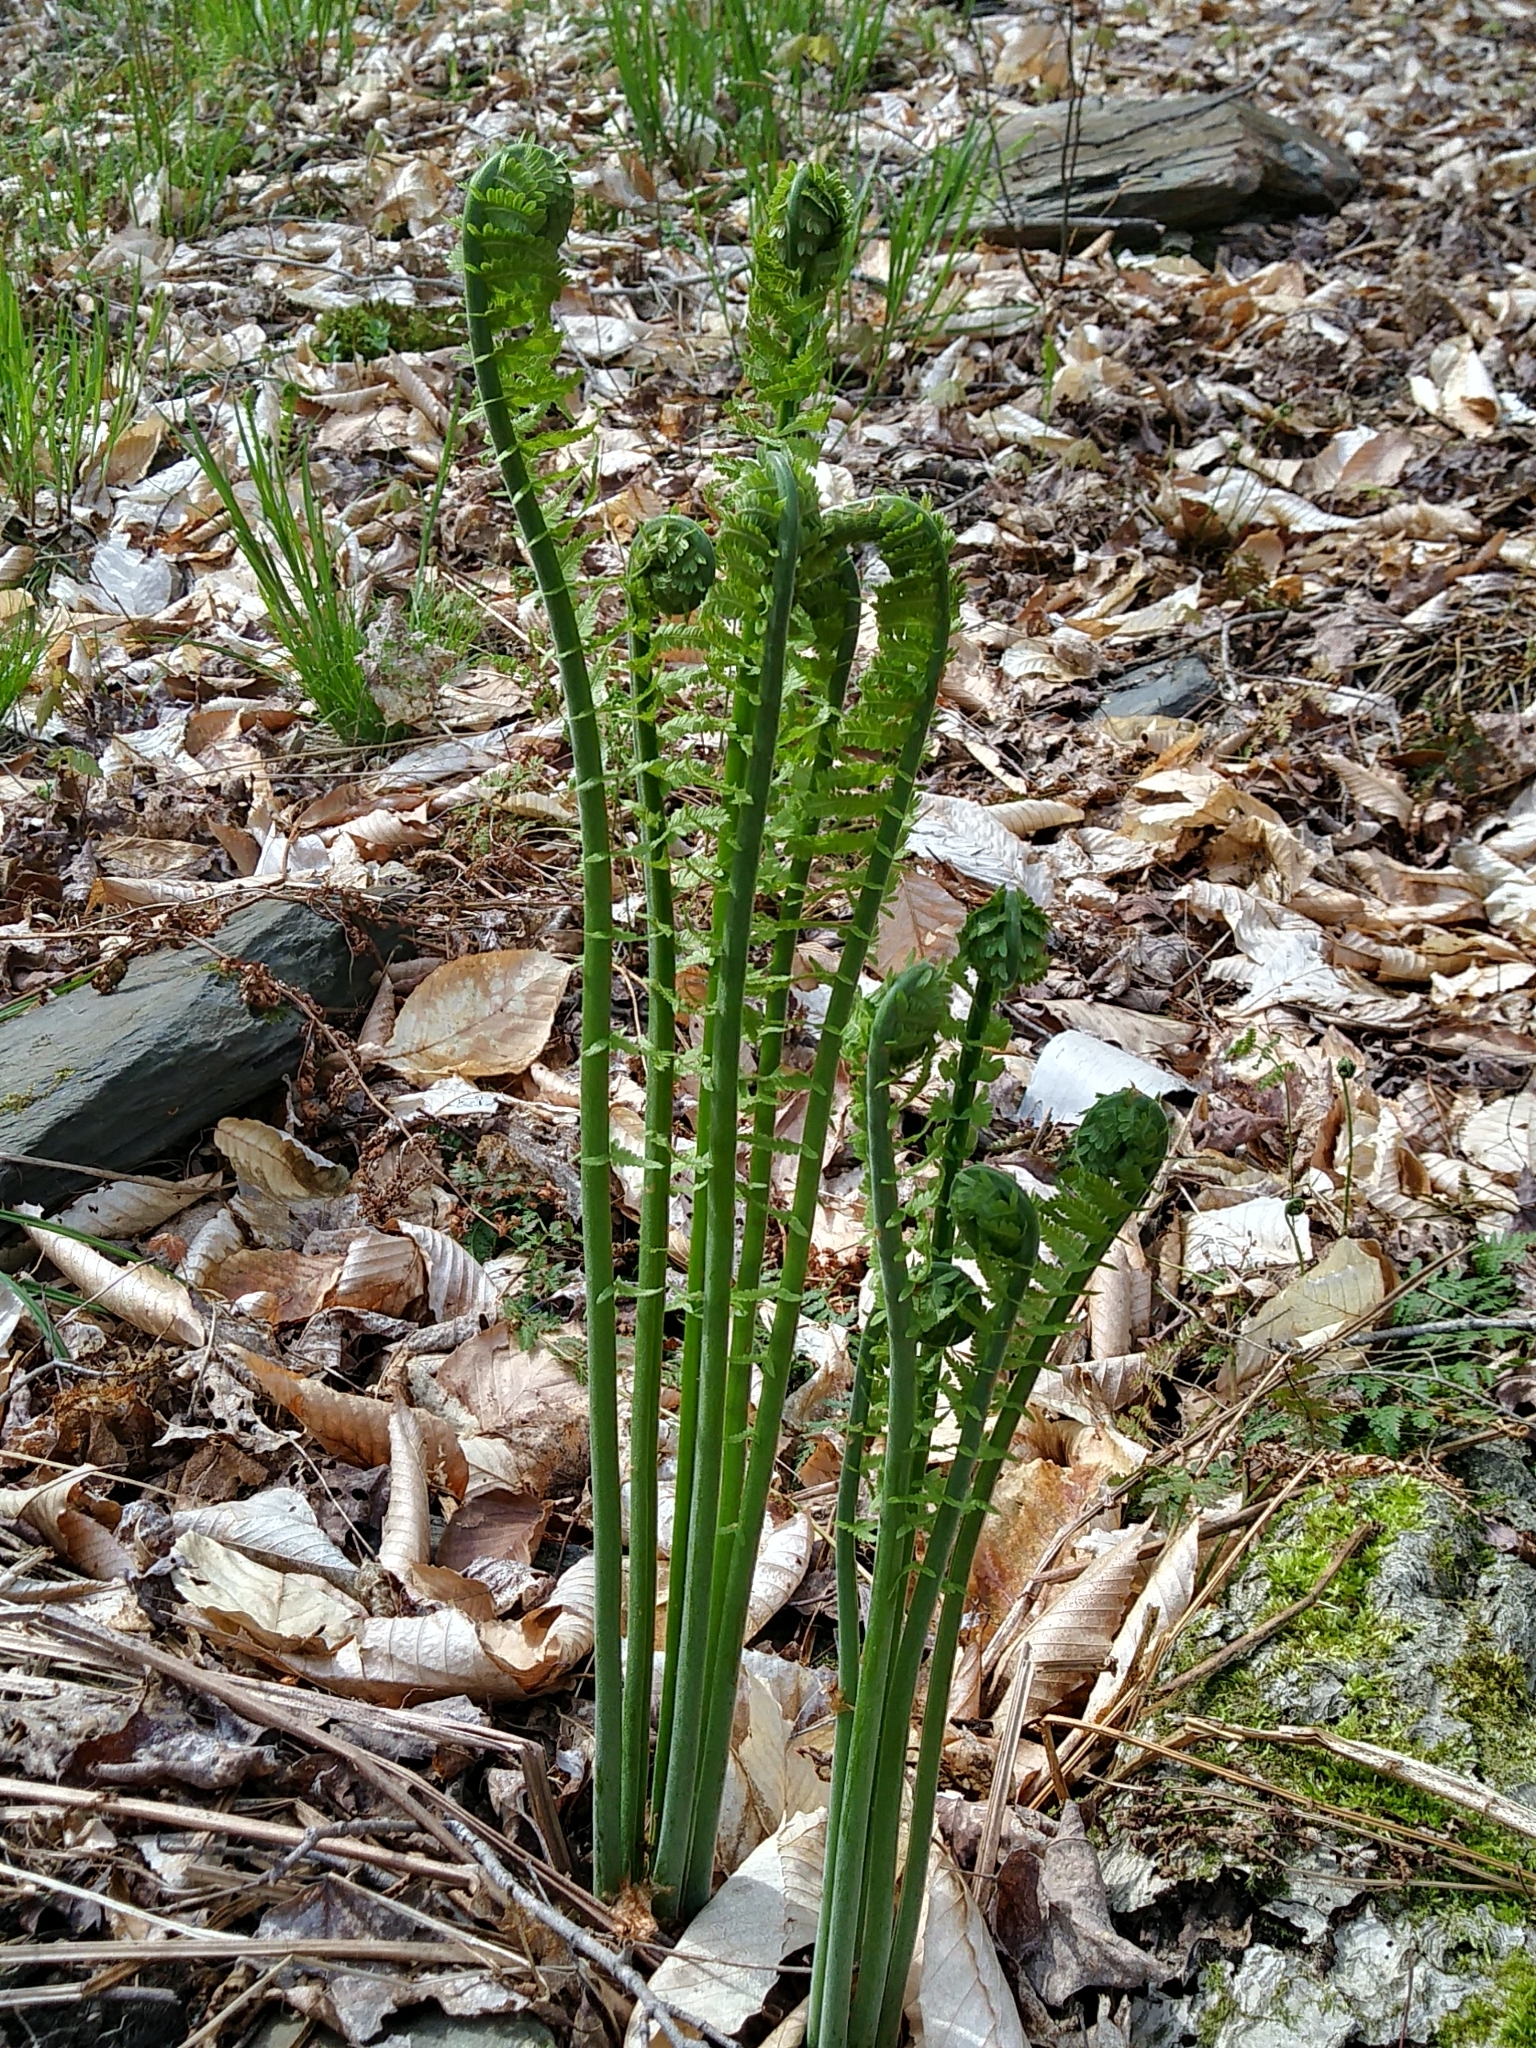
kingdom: Plantae
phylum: Tracheophyta
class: Polypodiopsida
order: Polypodiales
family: Onocleaceae
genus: Matteuccia
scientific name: Matteuccia struthiopteris
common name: Ostrich fern
